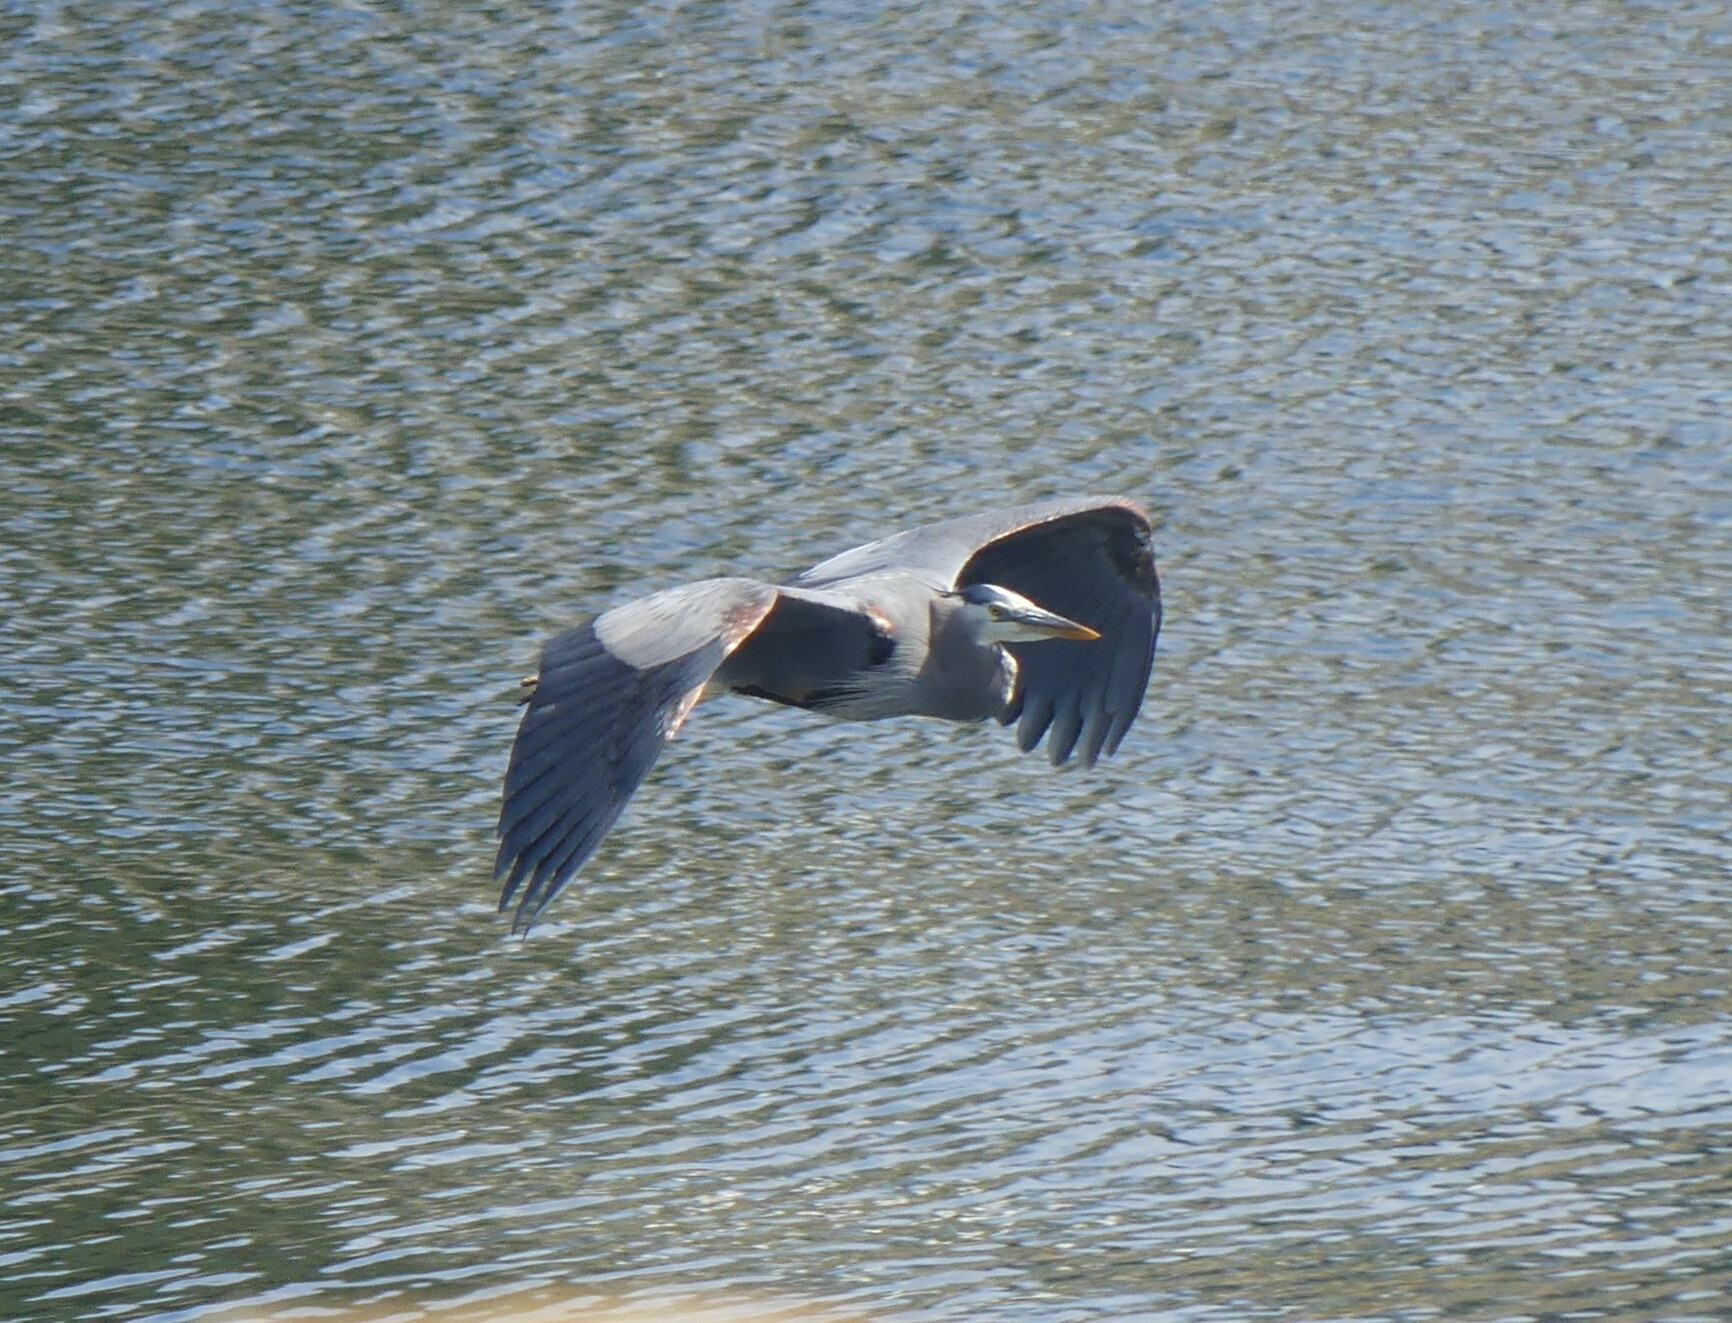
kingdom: Animalia
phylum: Chordata
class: Aves
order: Pelecaniformes
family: Ardeidae
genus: Ardea
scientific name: Ardea herodias
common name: Great blue heron
